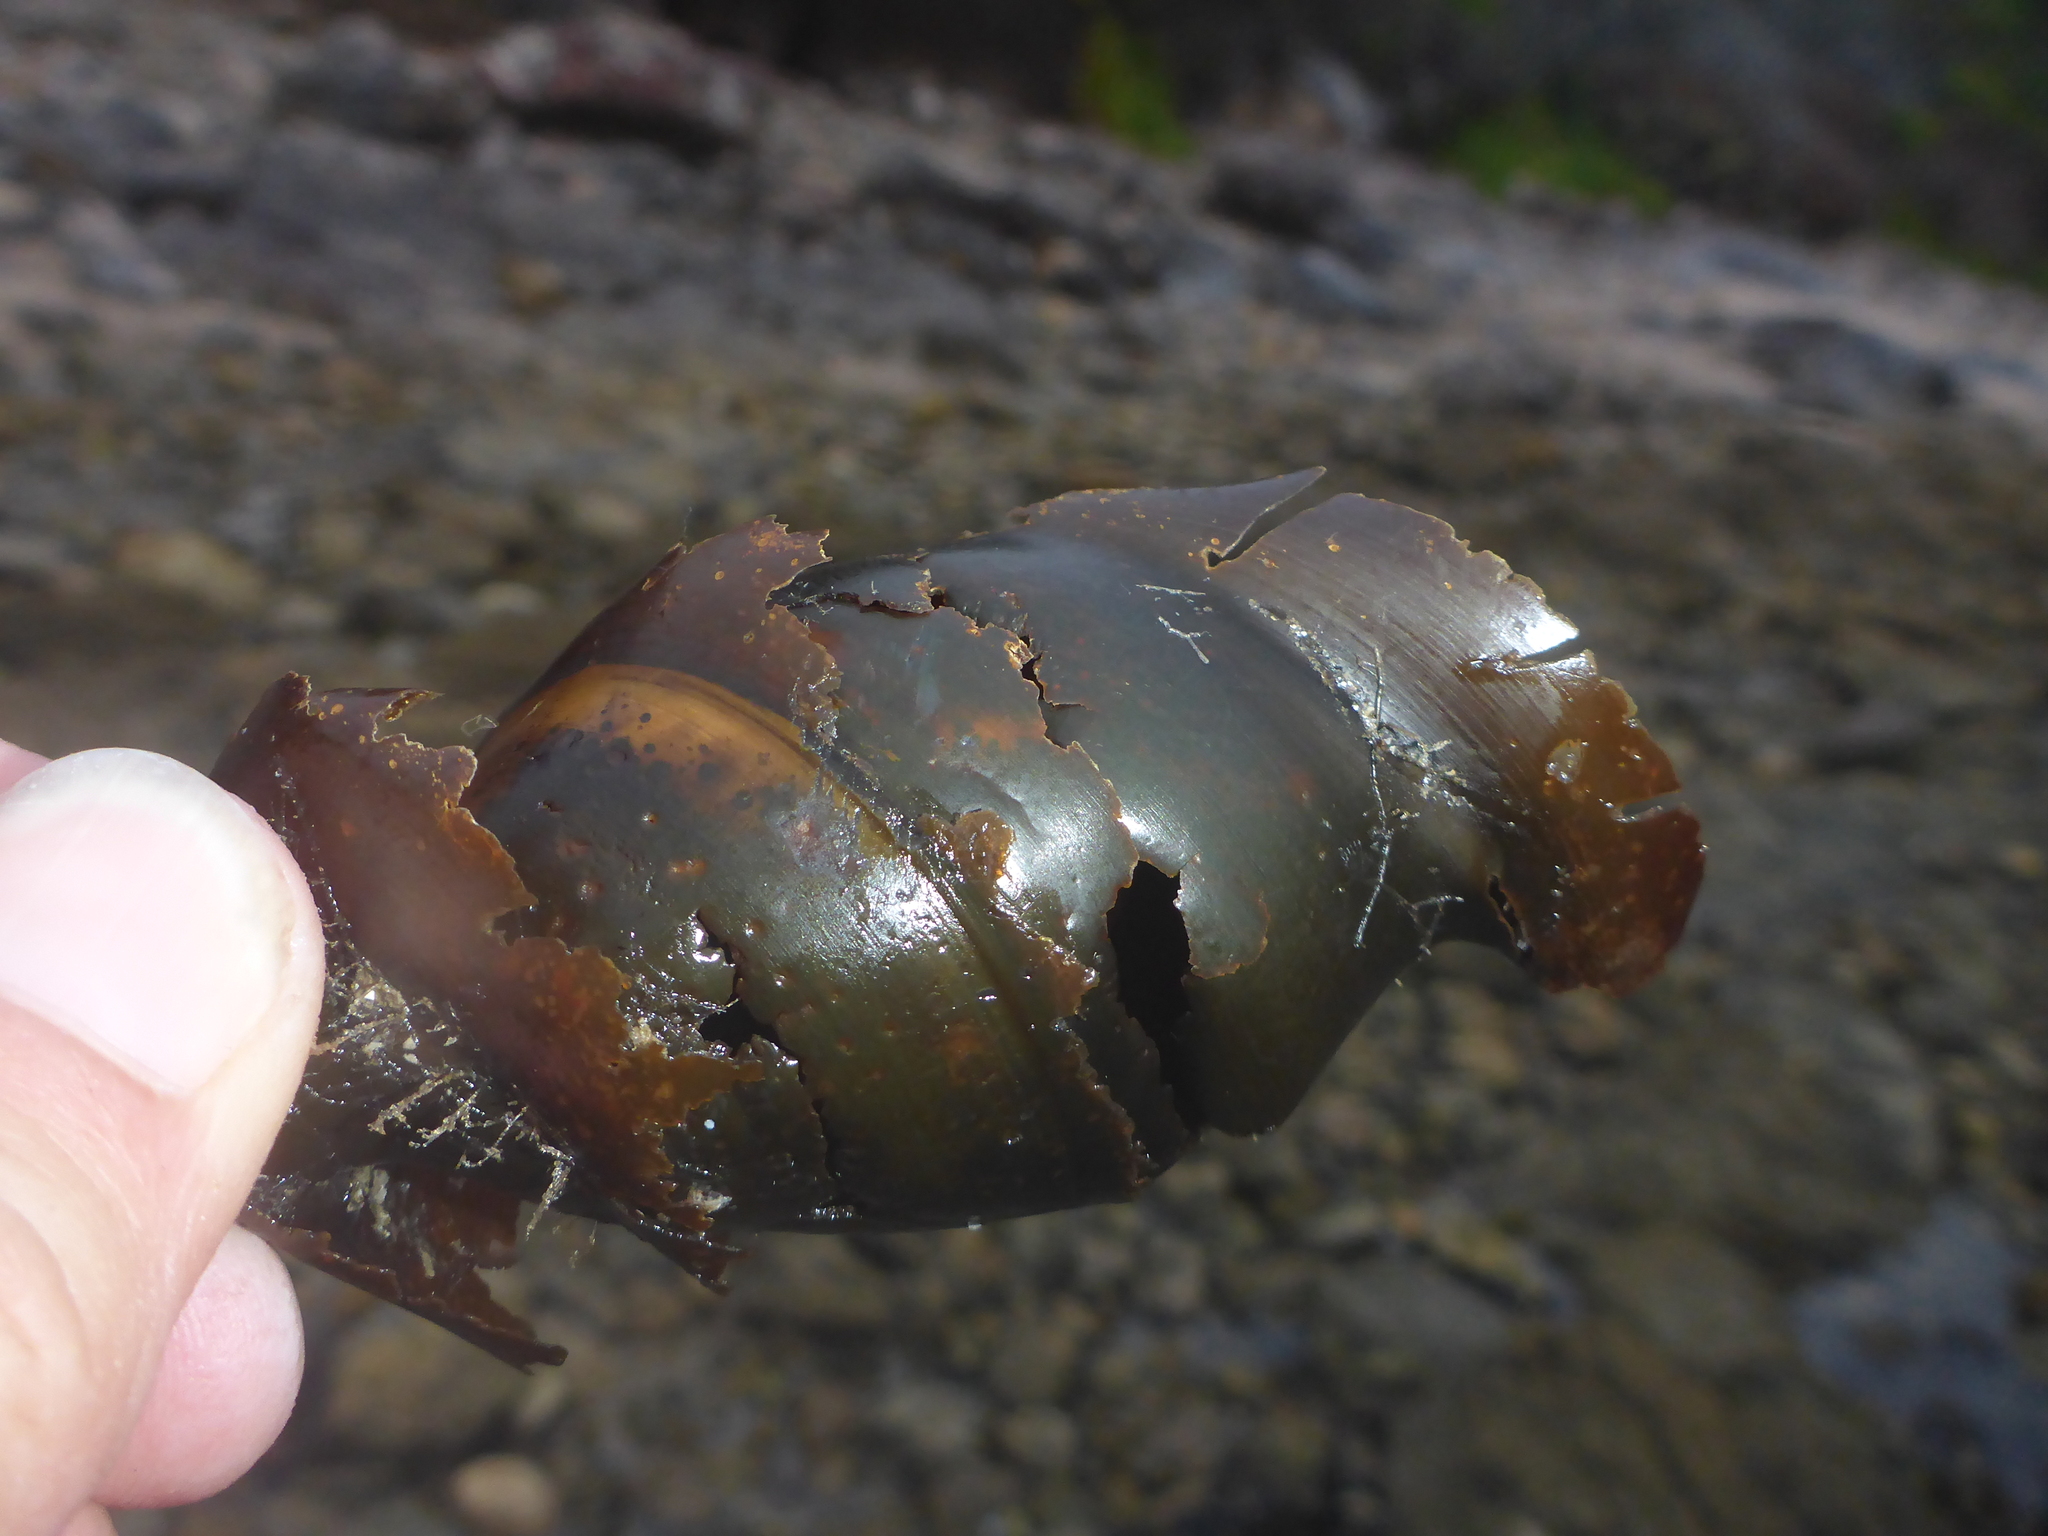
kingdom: Animalia
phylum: Chordata
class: Elasmobranchii
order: Heterodontiformes
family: Heterodontidae
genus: Heterodontus
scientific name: Heterodontus francisci
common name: Horn shark
